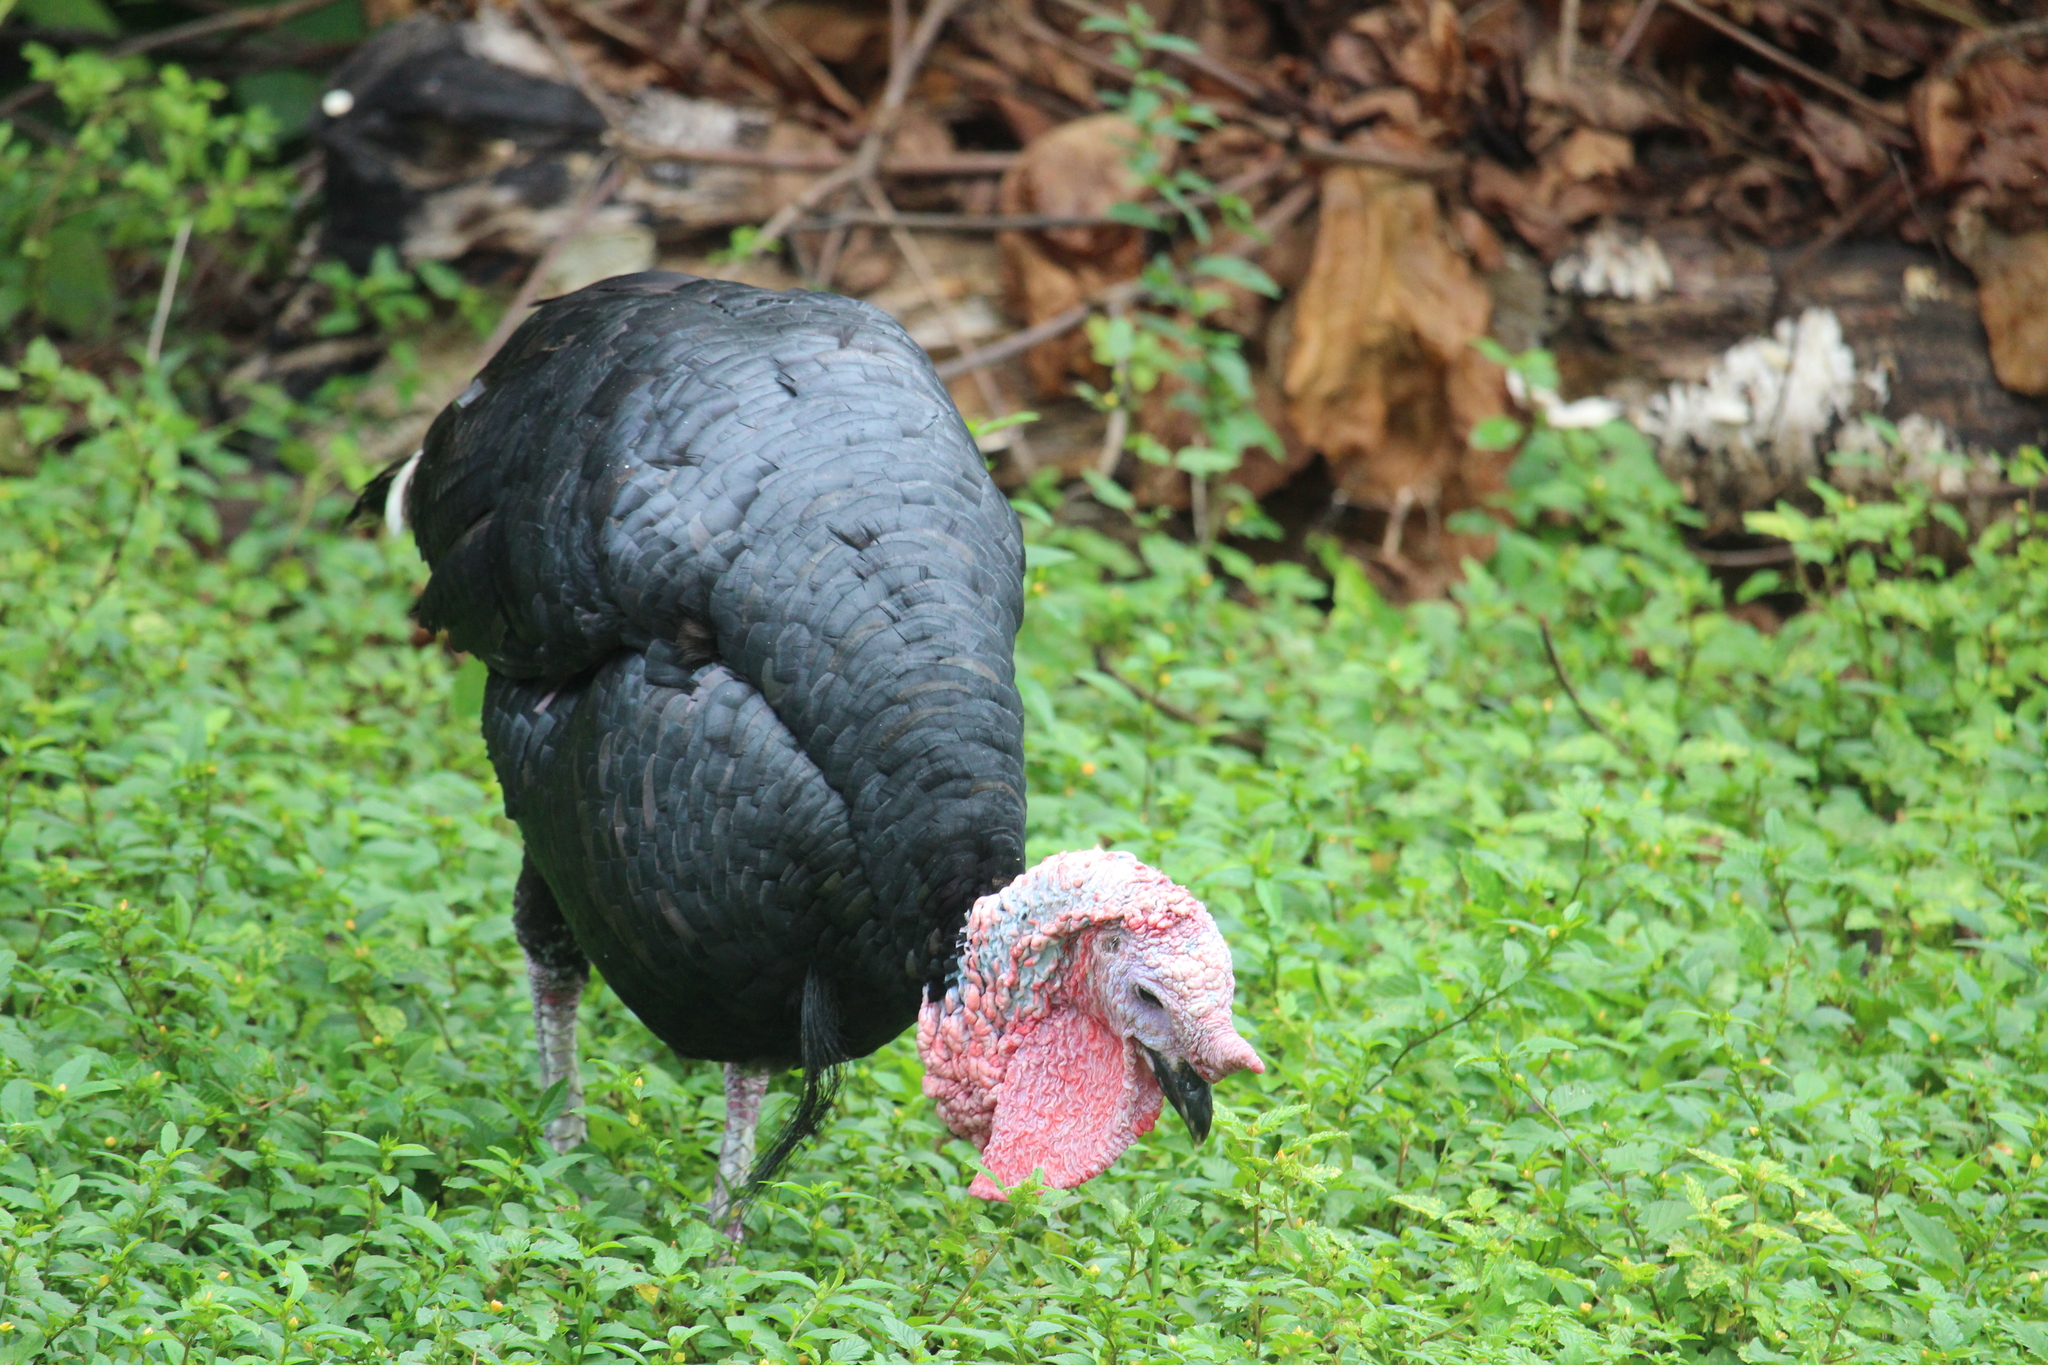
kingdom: Animalia
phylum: Chordata
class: Aves
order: Galliformes
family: Phasianidae
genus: Meleagris
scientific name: Meleagris gallopavo
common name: Wild turkey
